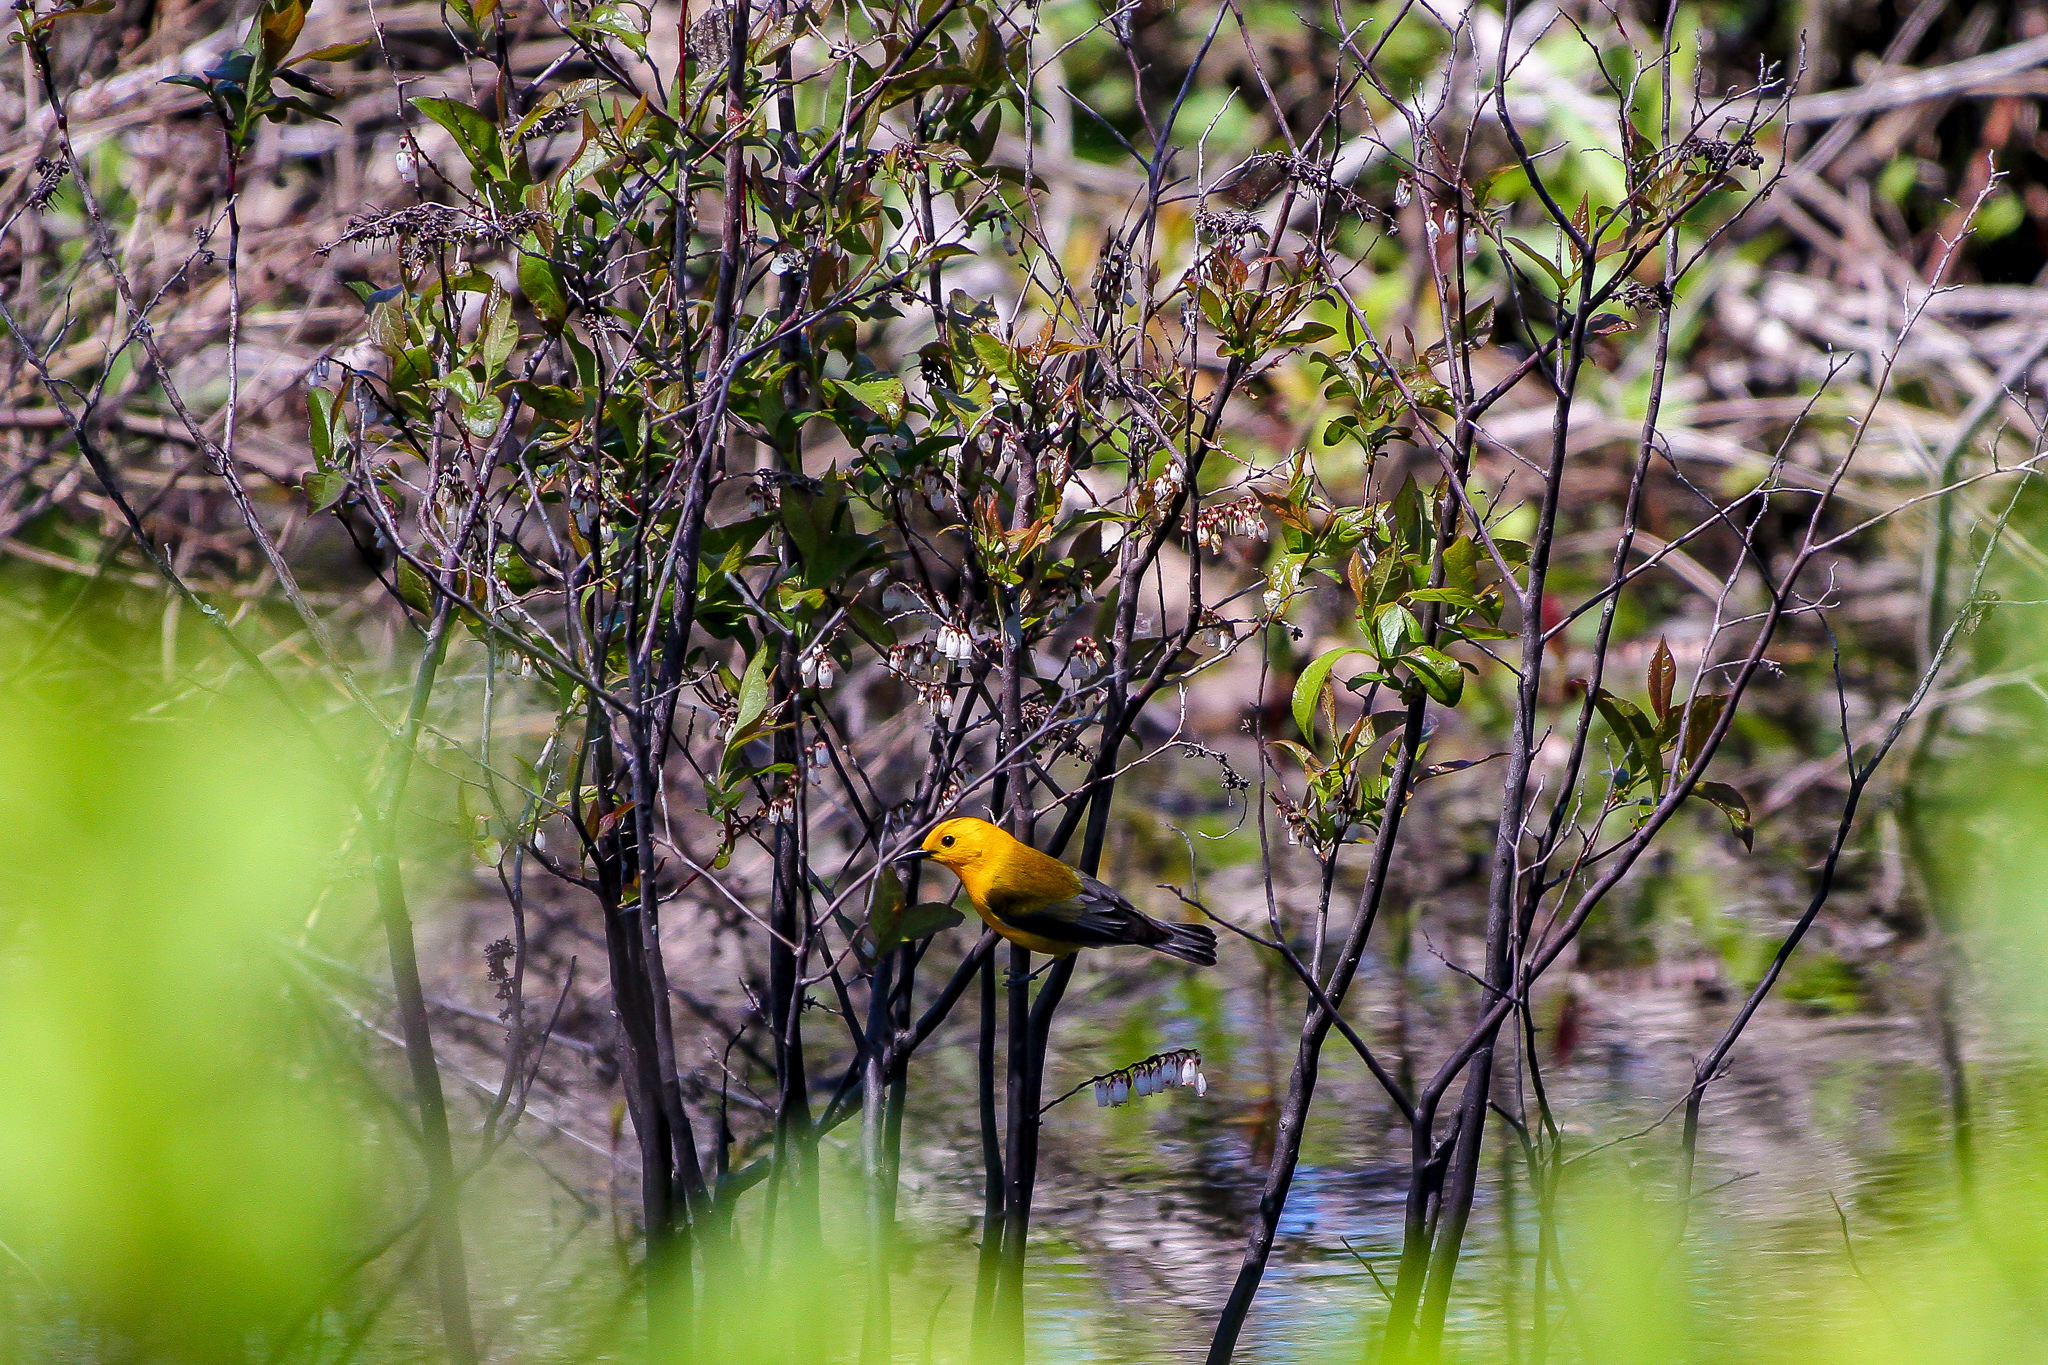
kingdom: Animalia
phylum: Chordata
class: Aves
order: Passeriformes
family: Parulidae
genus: Protonotaria
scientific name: Protonotaria citrea
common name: Prothonotary warbler
